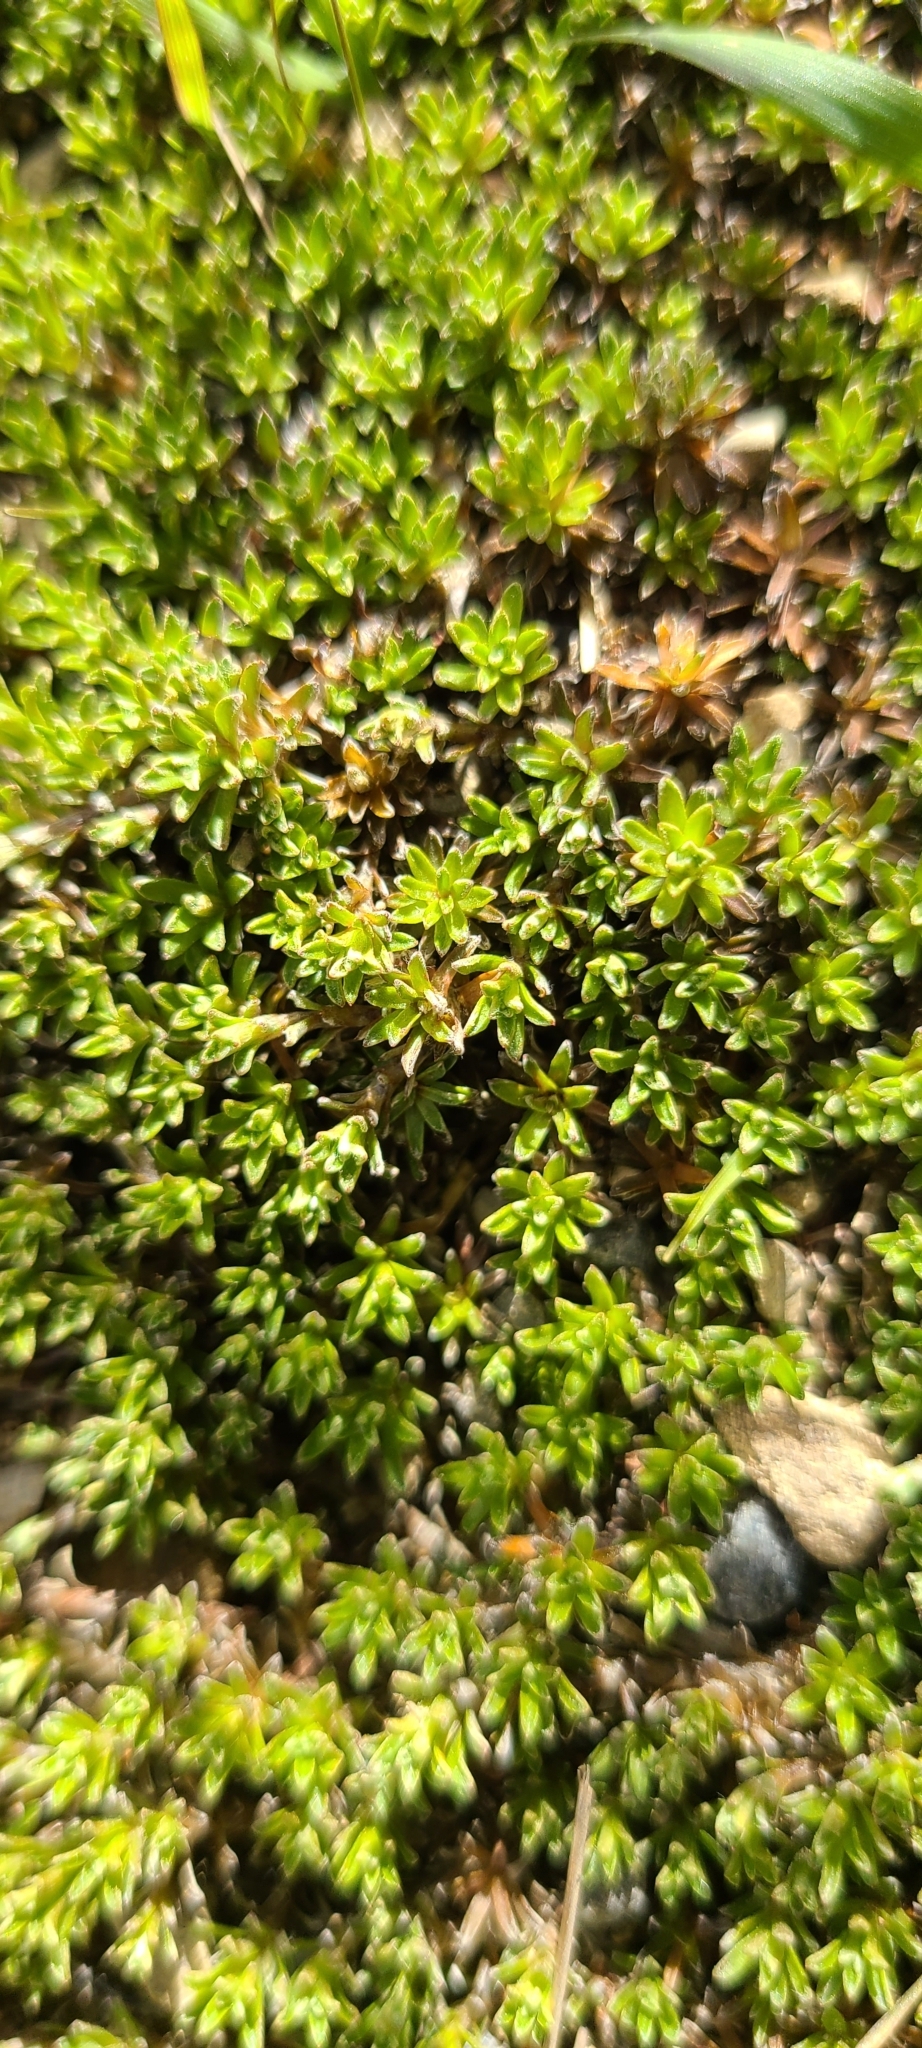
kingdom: Plantae
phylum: Tracheophyta
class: Magnoliopsida
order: Asterales
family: Asteraceae
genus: Raoulia
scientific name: Raoulia subsericea
